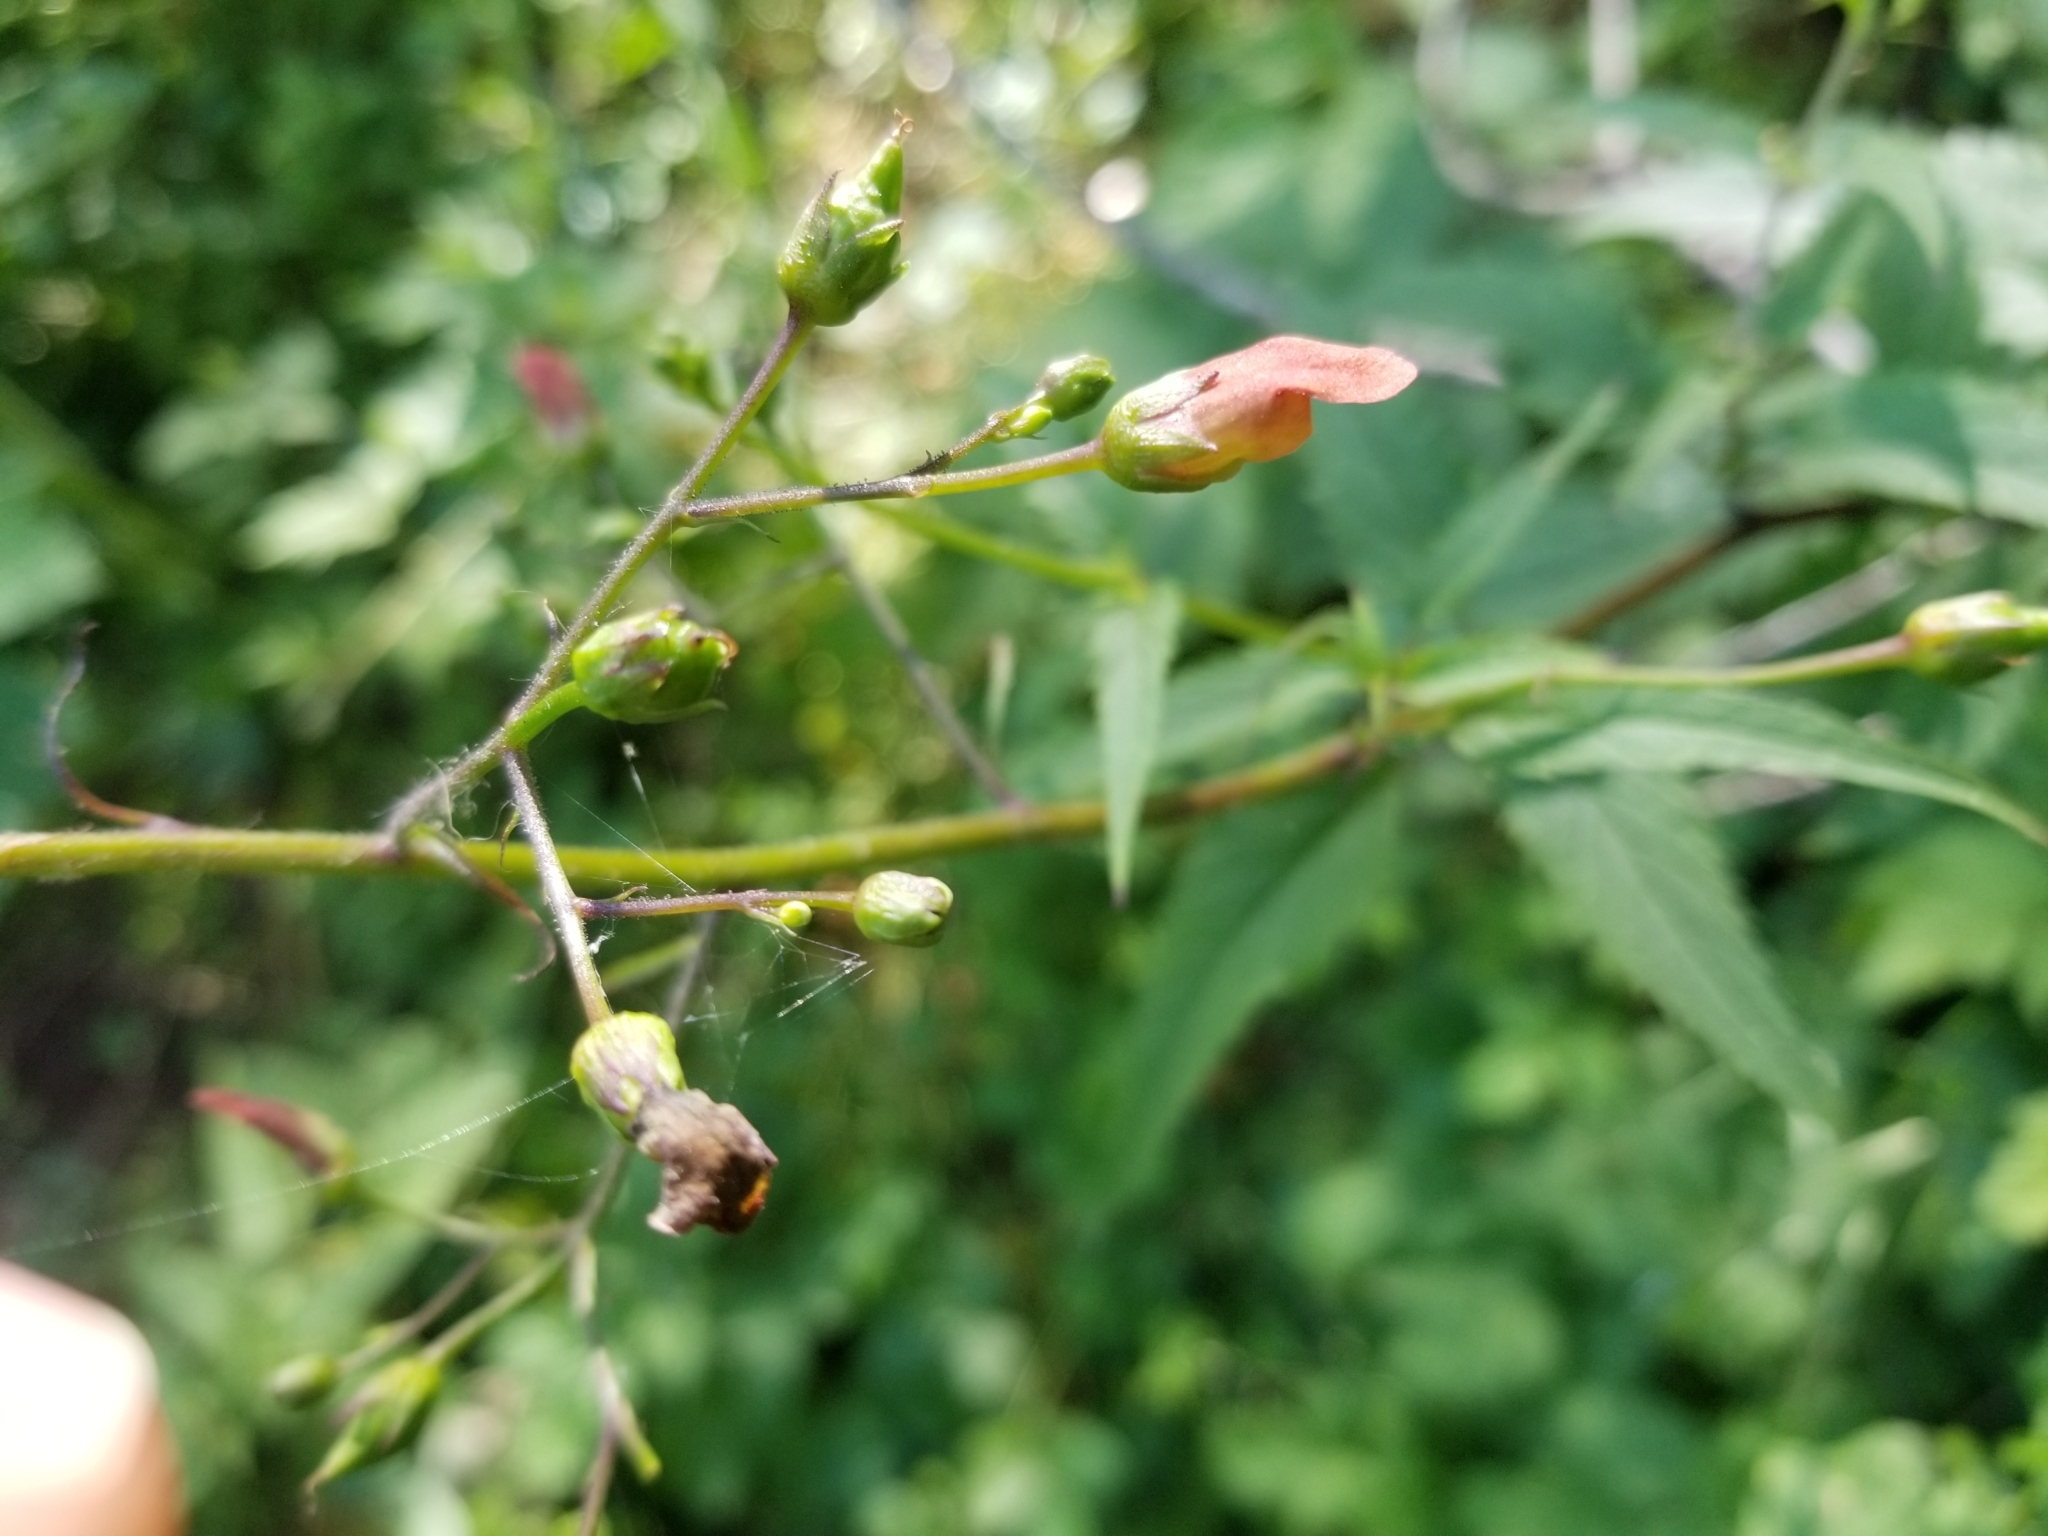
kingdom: Plantae
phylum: Tracheophyta
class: Magnoliopsida
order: Lamiales
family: Scrophulariaceae
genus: Scrophularia
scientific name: Scrophularia californica
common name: California figwort
